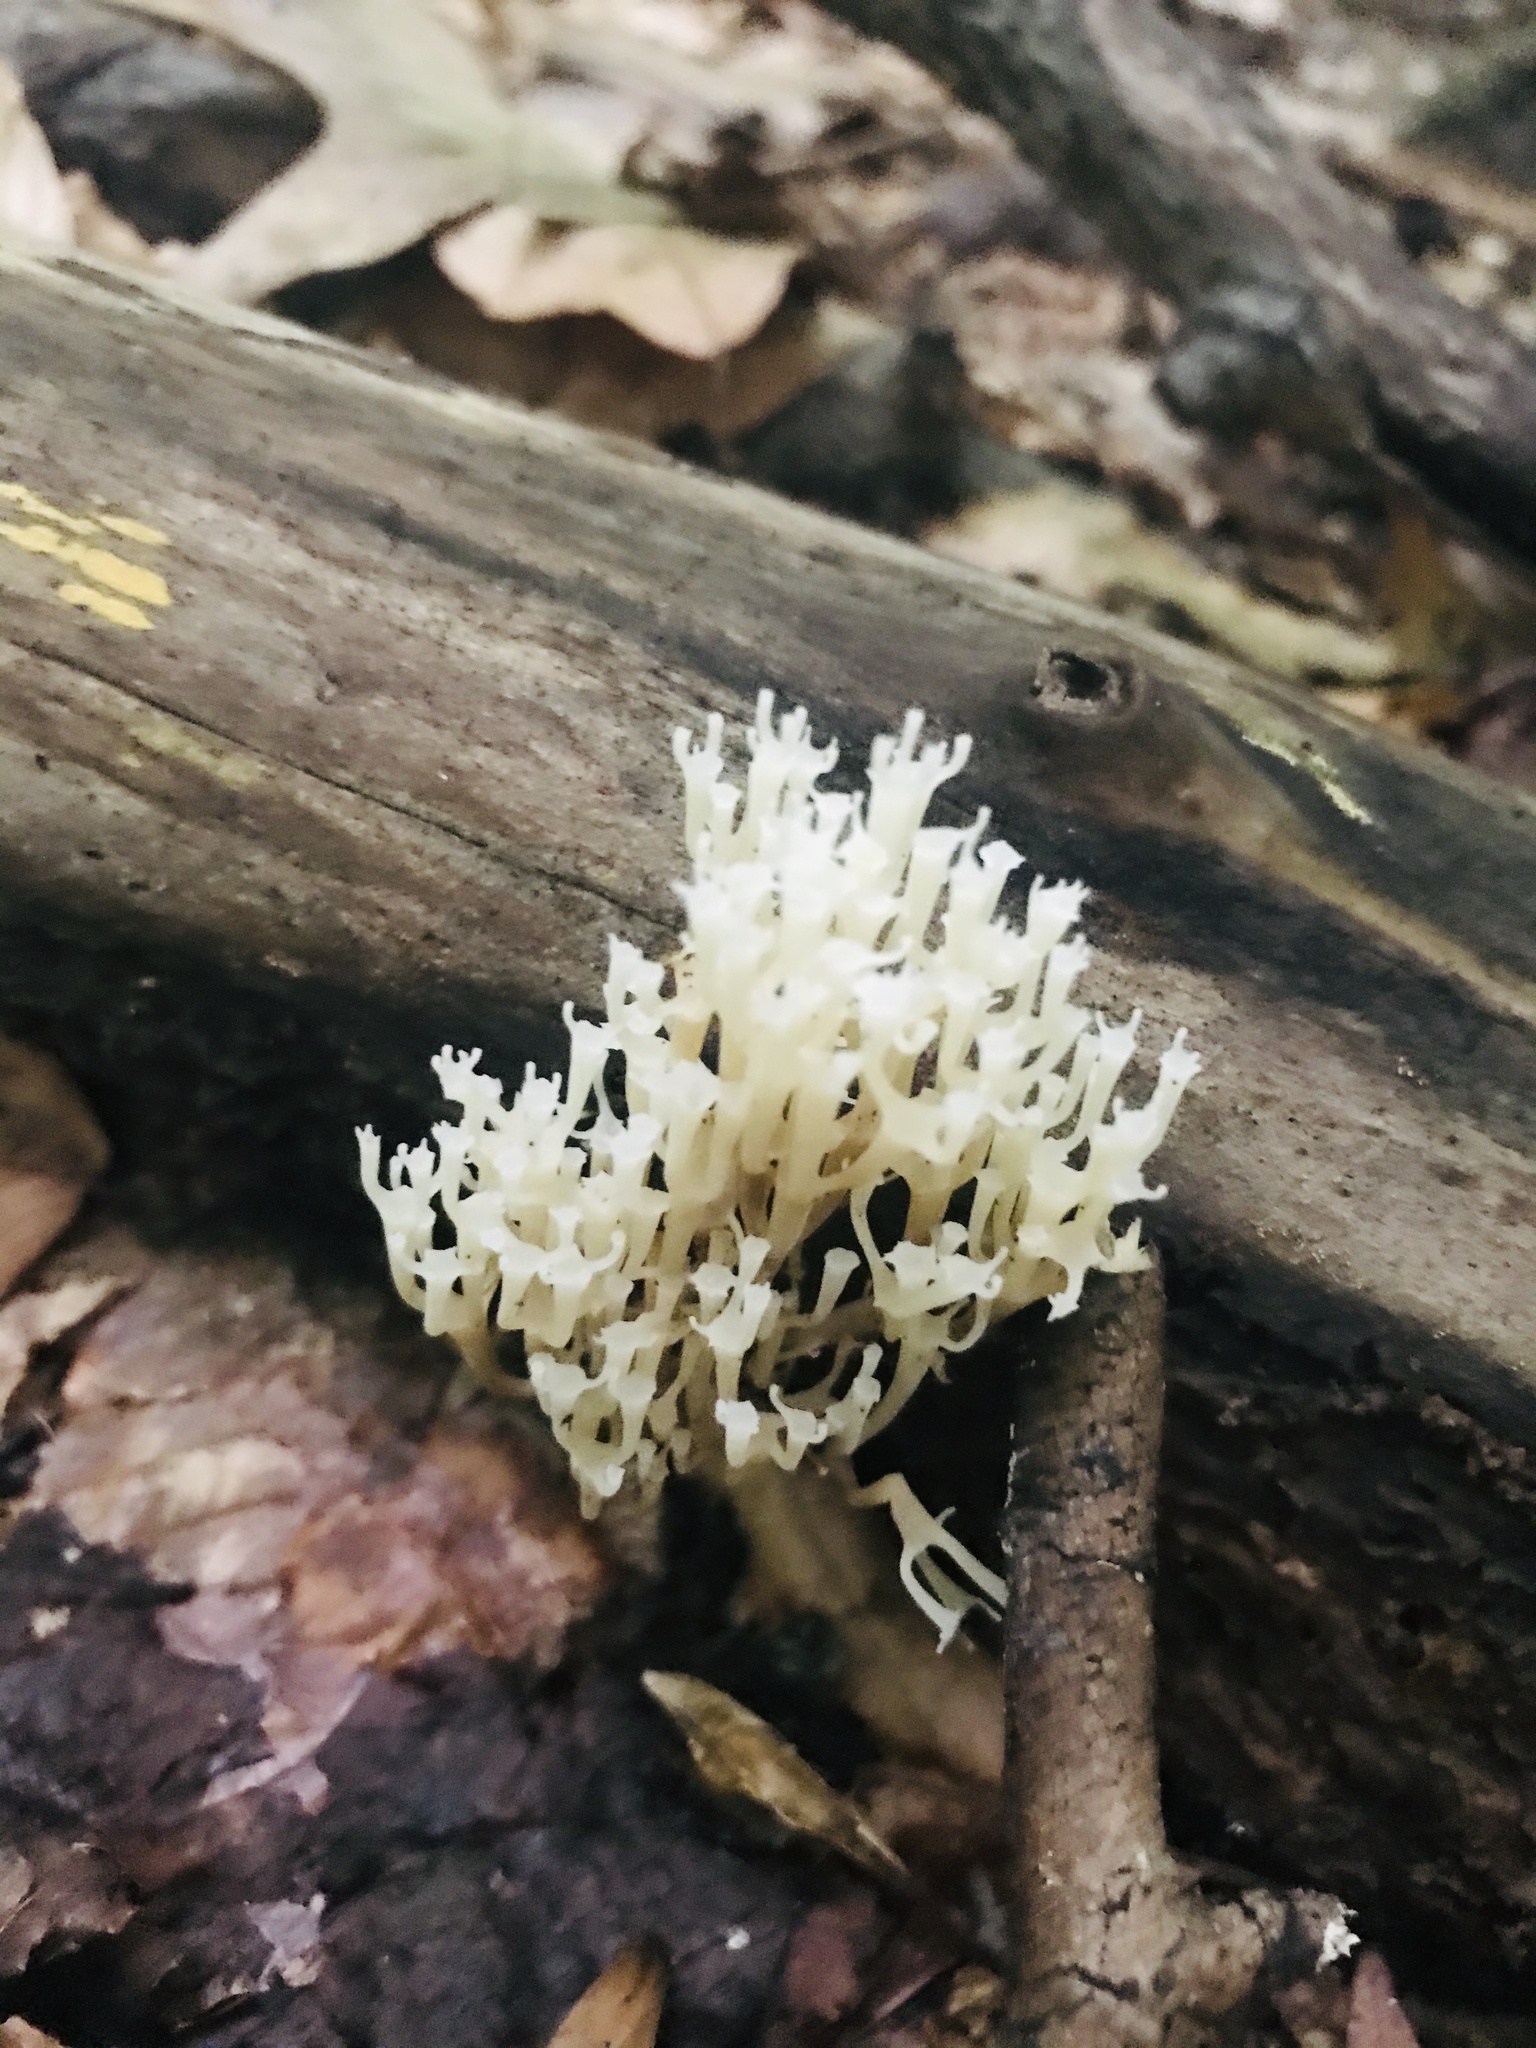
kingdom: Fungi
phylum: Basidiomycota
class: Agaricomycetes
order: Russulales
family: Auriscalpiaceae
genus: Artomyces
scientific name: Artomyces pyxidatus
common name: Crown-tipped coral fungus
